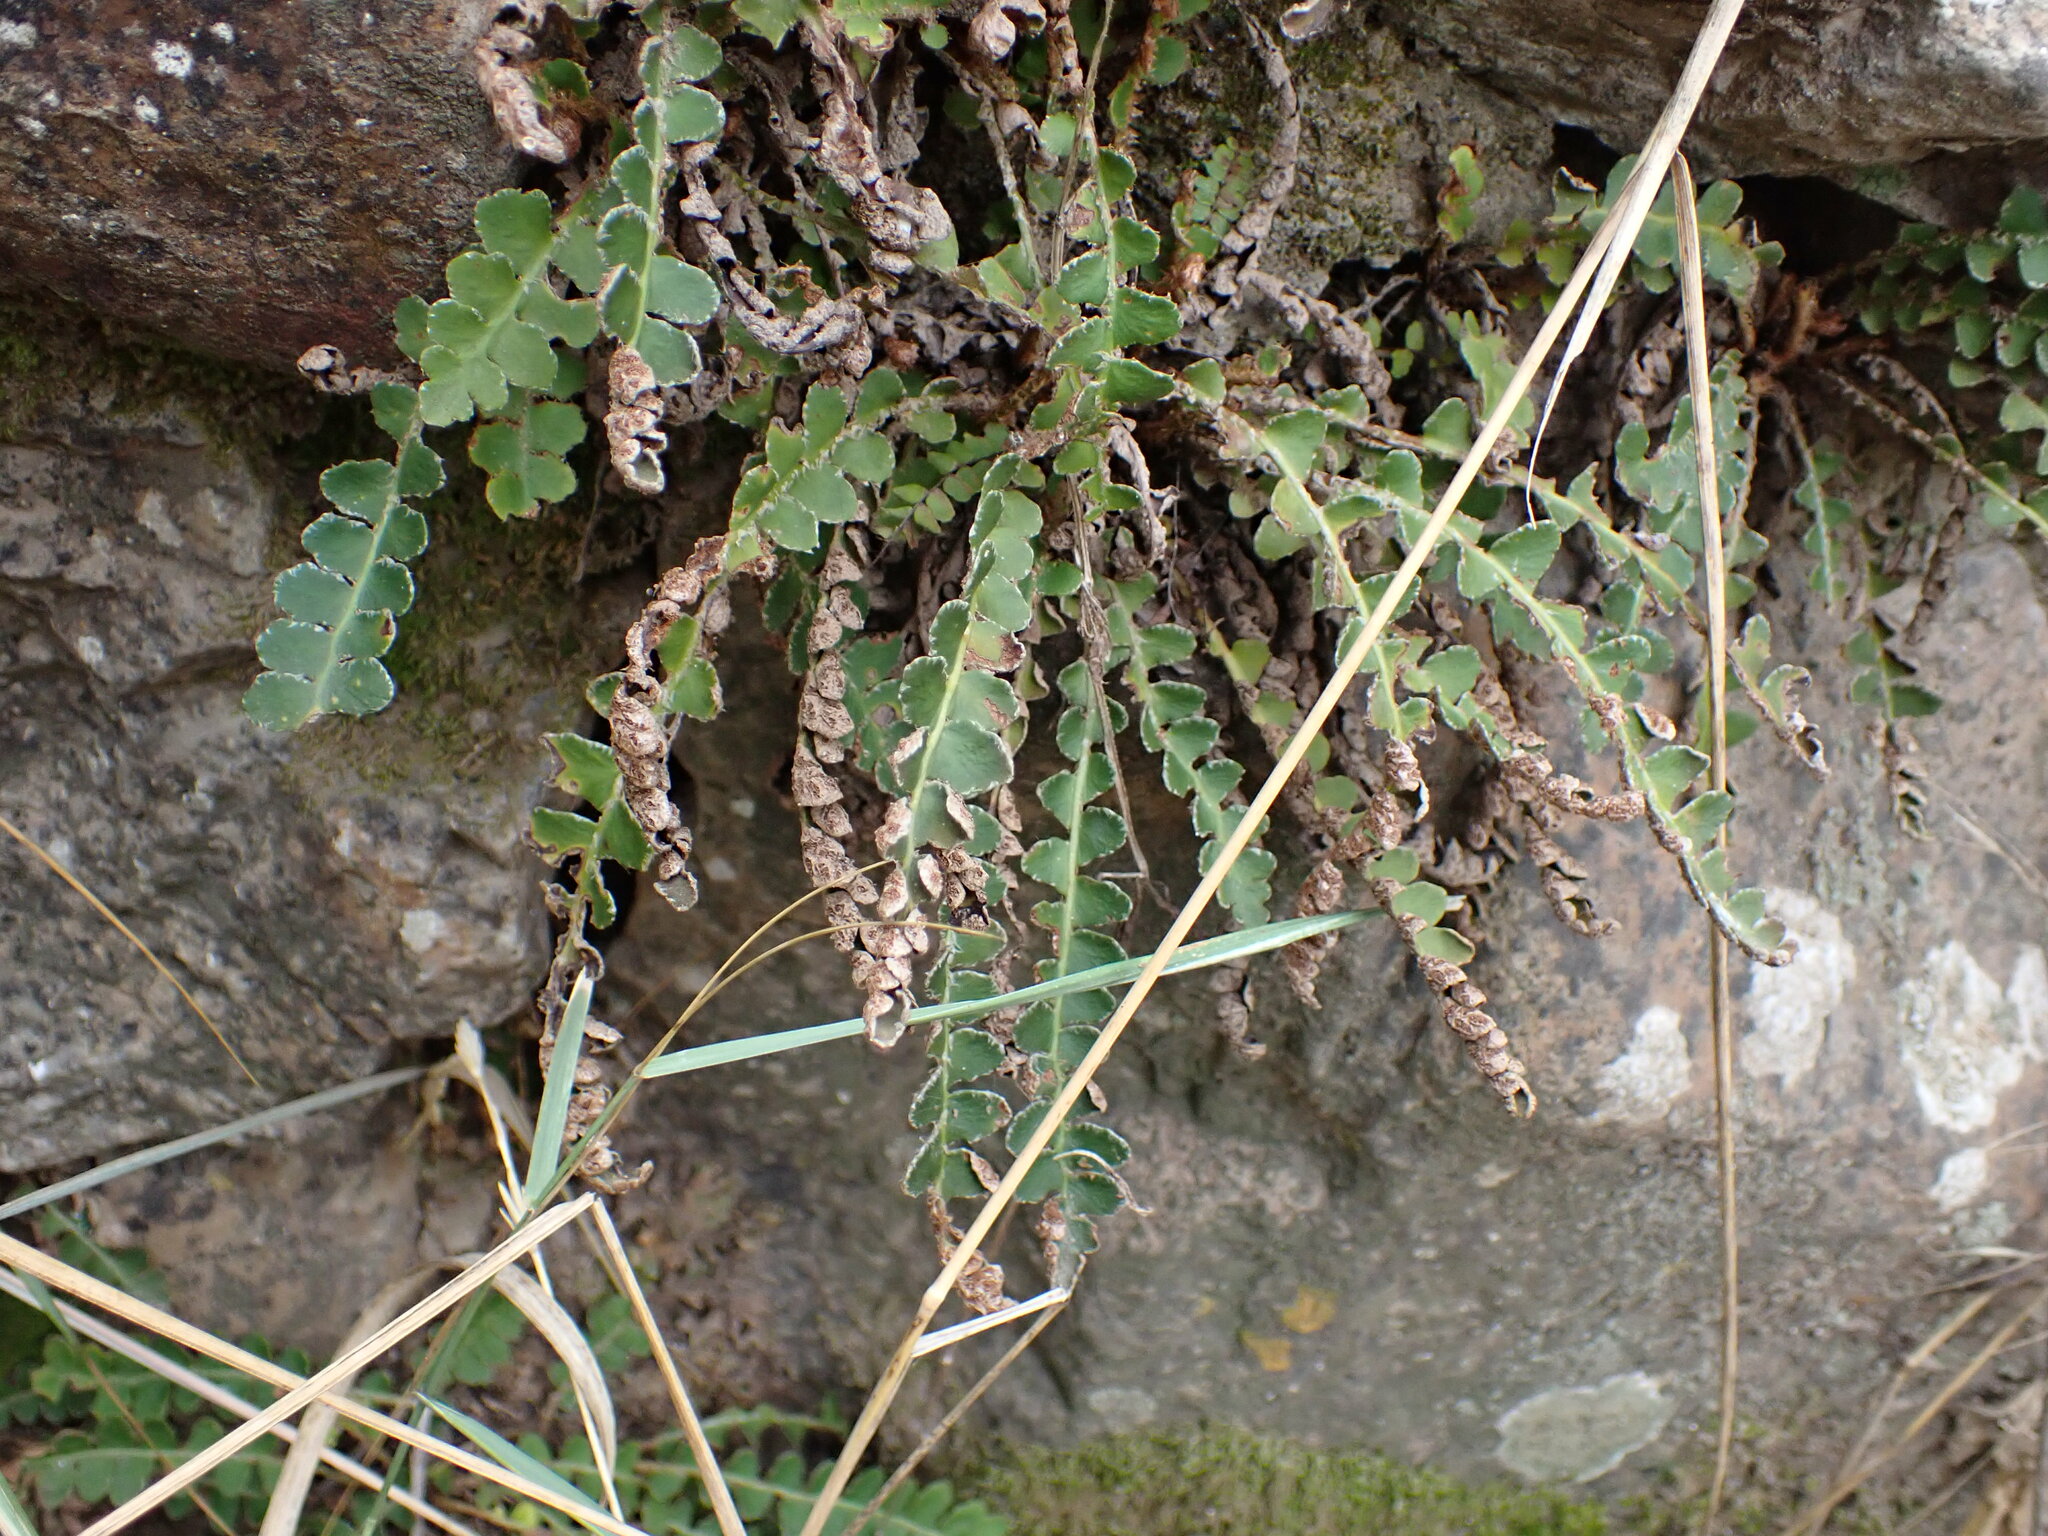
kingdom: Plantae
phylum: Tracheophyta
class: Polypodiopsida
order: Polypodiales
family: Aspleniaceae
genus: Asplenium
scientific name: Asplenium ceterach
